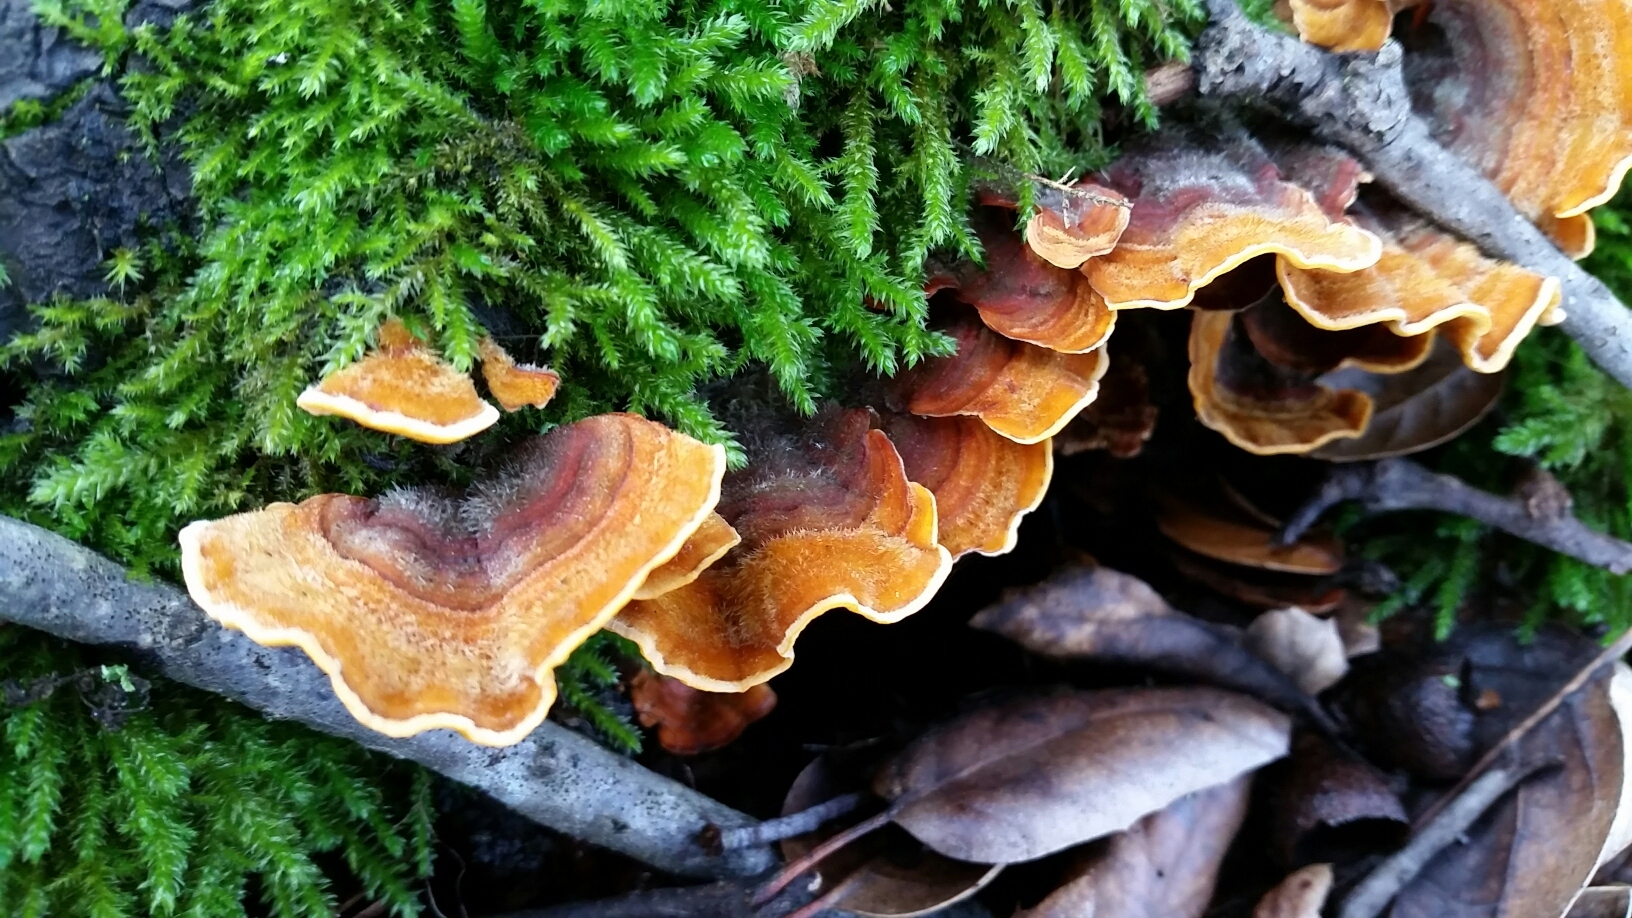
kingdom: Fungi
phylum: Basidiomycota
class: Agaricomycetes
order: Russulales
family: Stereaceae
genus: Stereum
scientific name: Stereum hirsutum
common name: Hairy curtain crust
